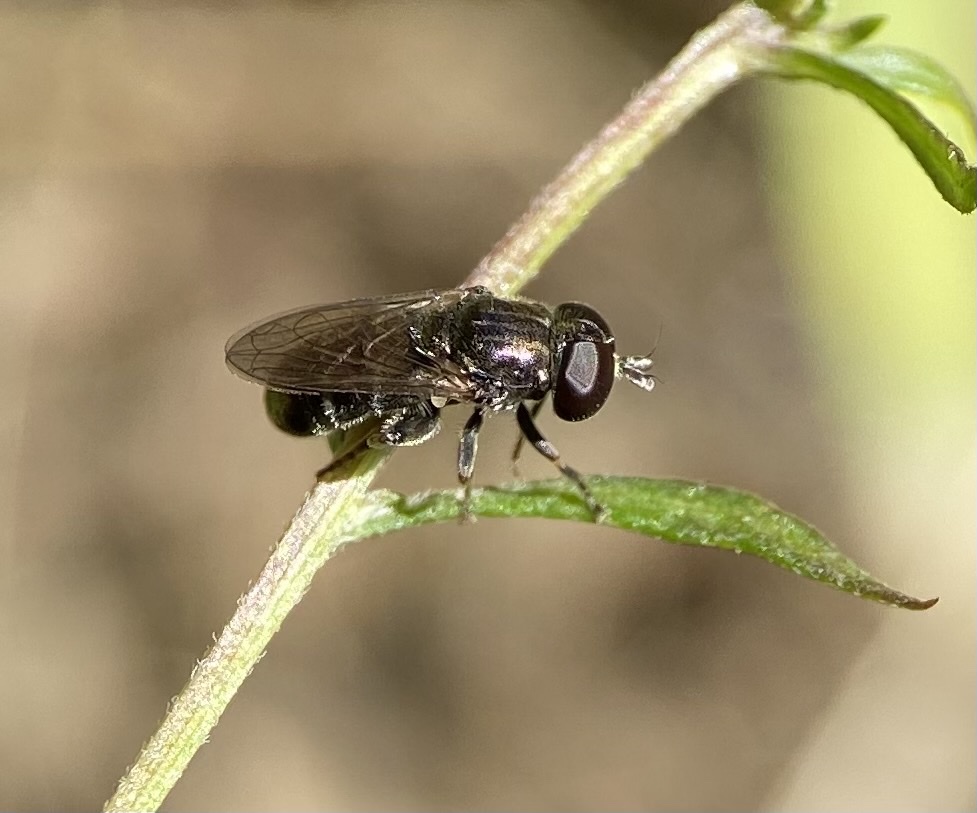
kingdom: Animalia
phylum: Arthropoda
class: Insecta
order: Diptera
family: Syrphidae
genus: Eumerus
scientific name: Eumerus
